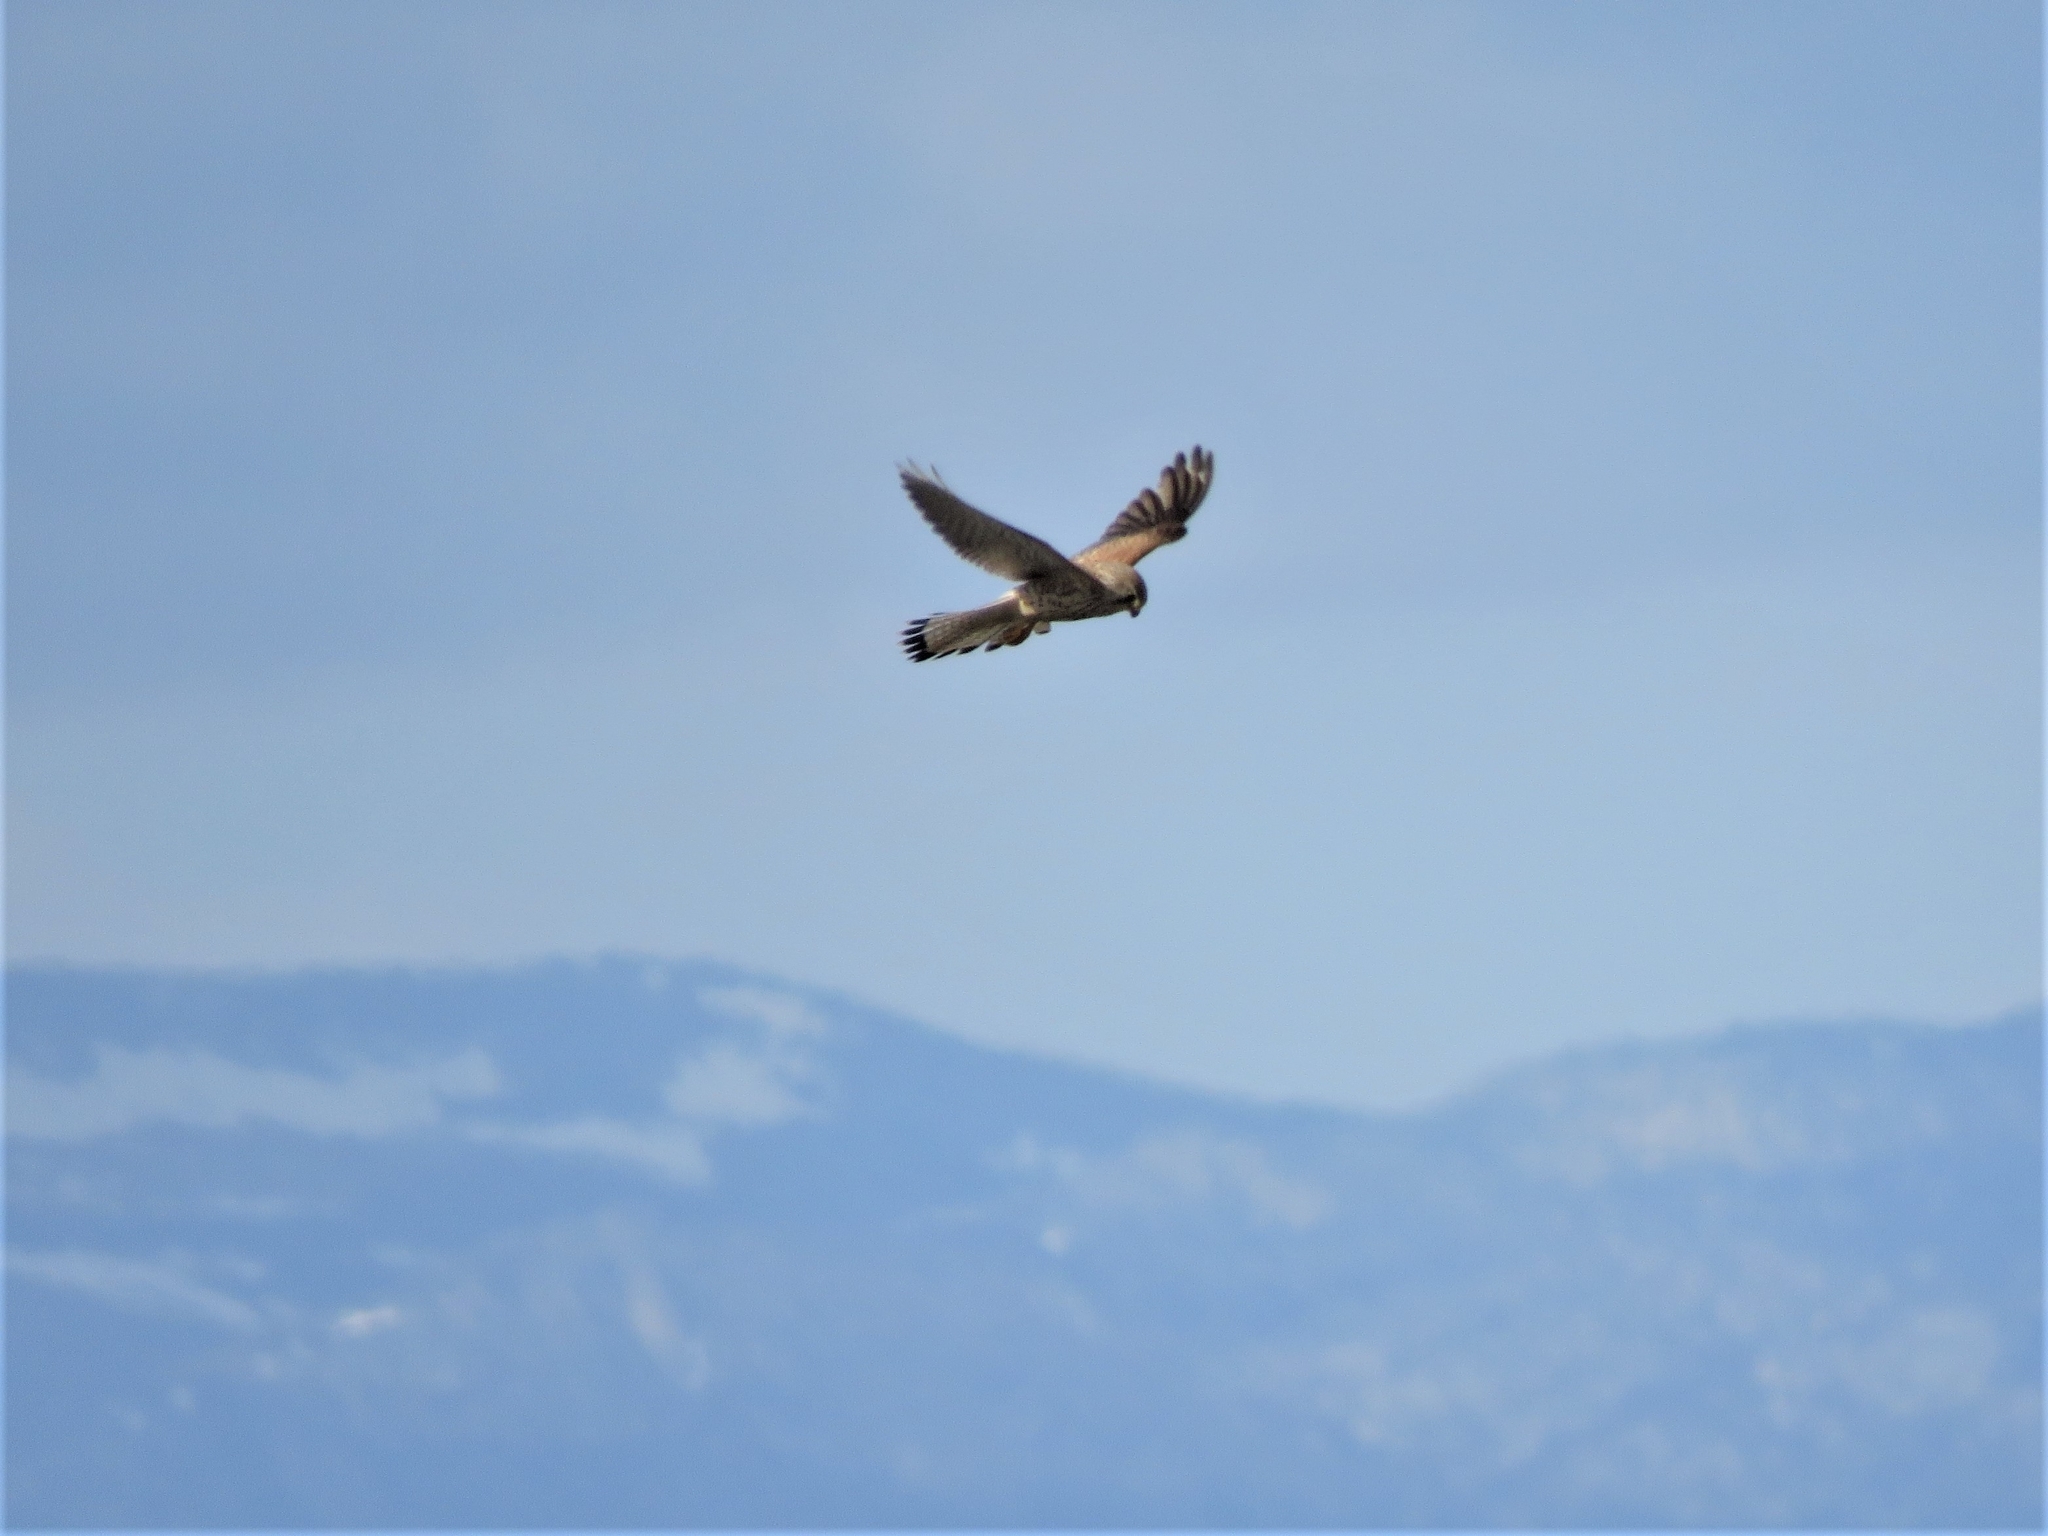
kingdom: Animalia
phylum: Chordata
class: Aves
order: Falconiformes
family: Falconidae
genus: Falco
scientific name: Falco tinnunculus
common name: Common kestrel
